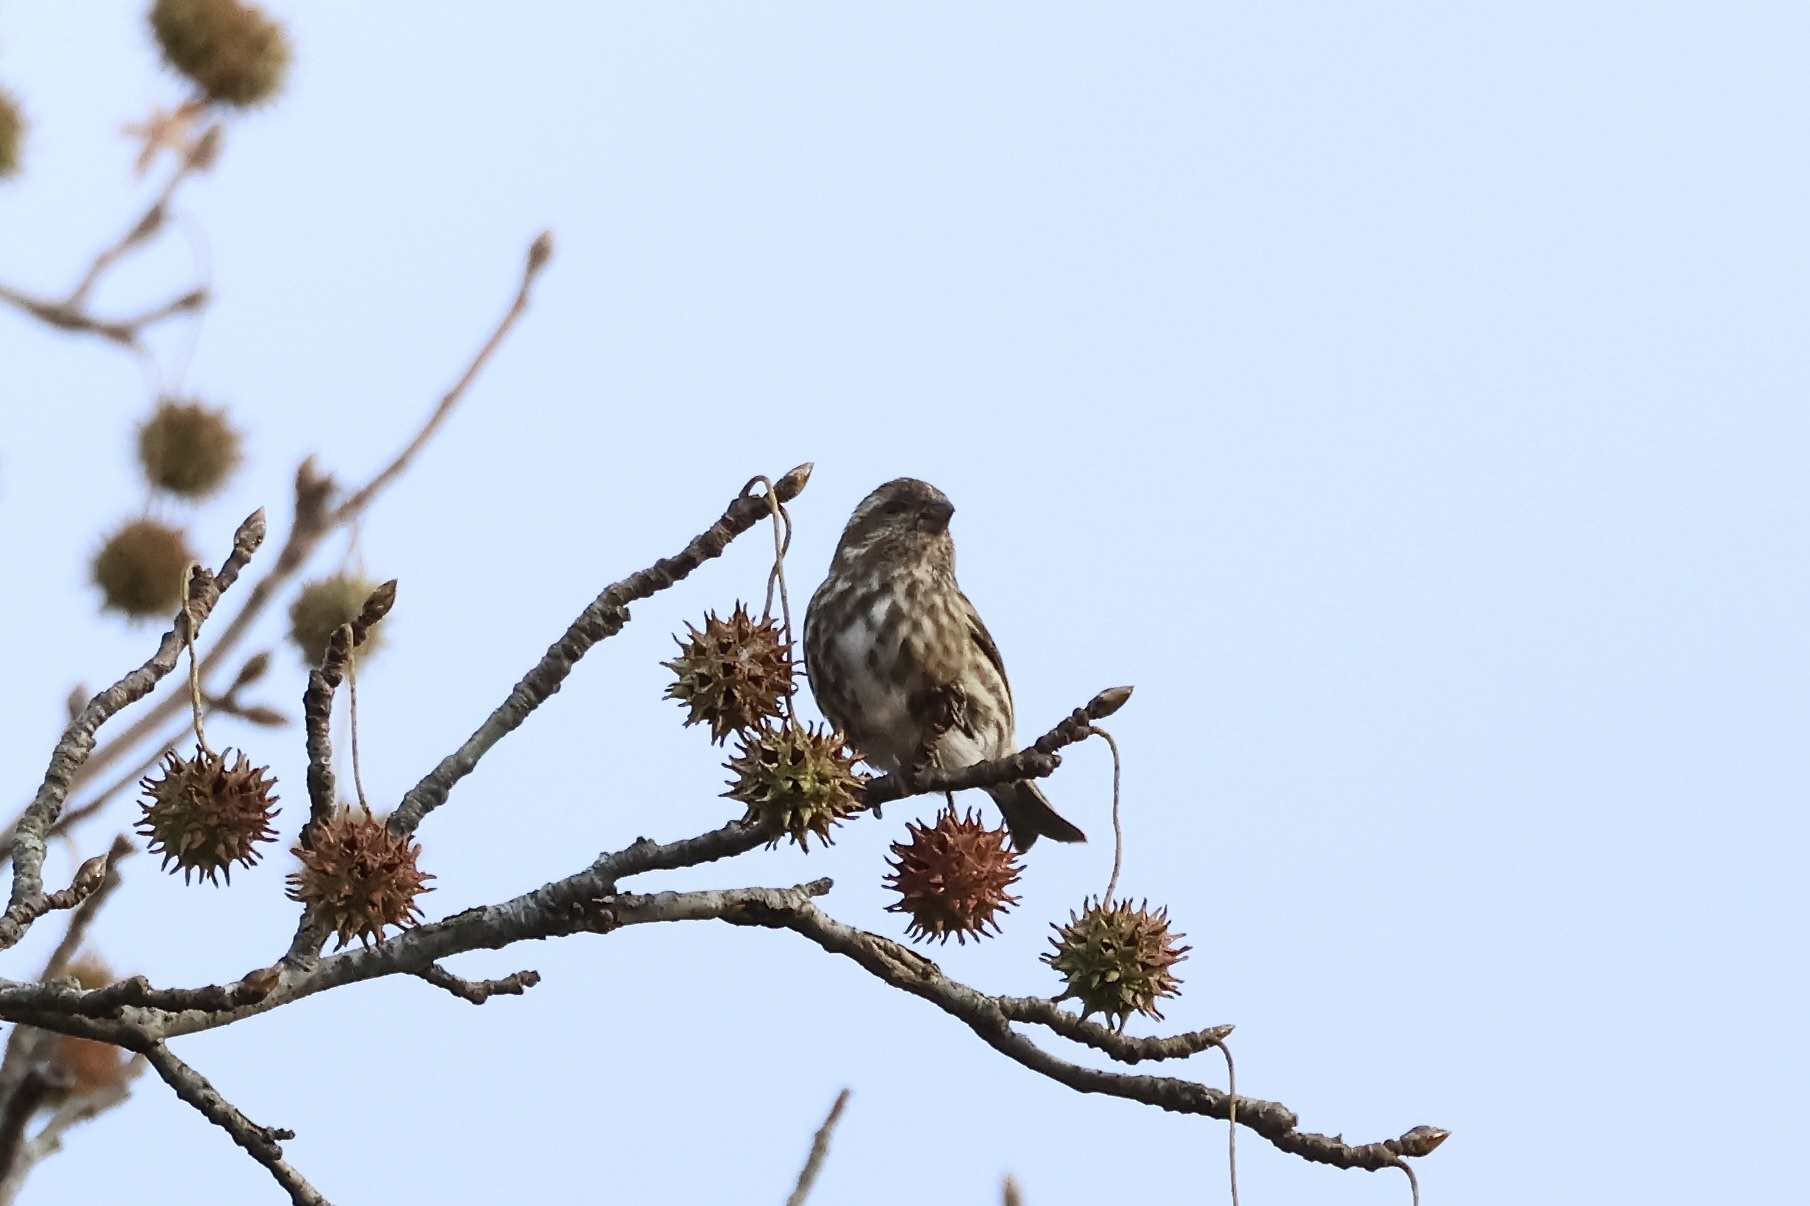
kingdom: Animalia
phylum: Chordata
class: Aves
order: Passeriformes
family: Fringillidae
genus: Haemorhous
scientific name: Haemorhous purpureus
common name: Purple finch
